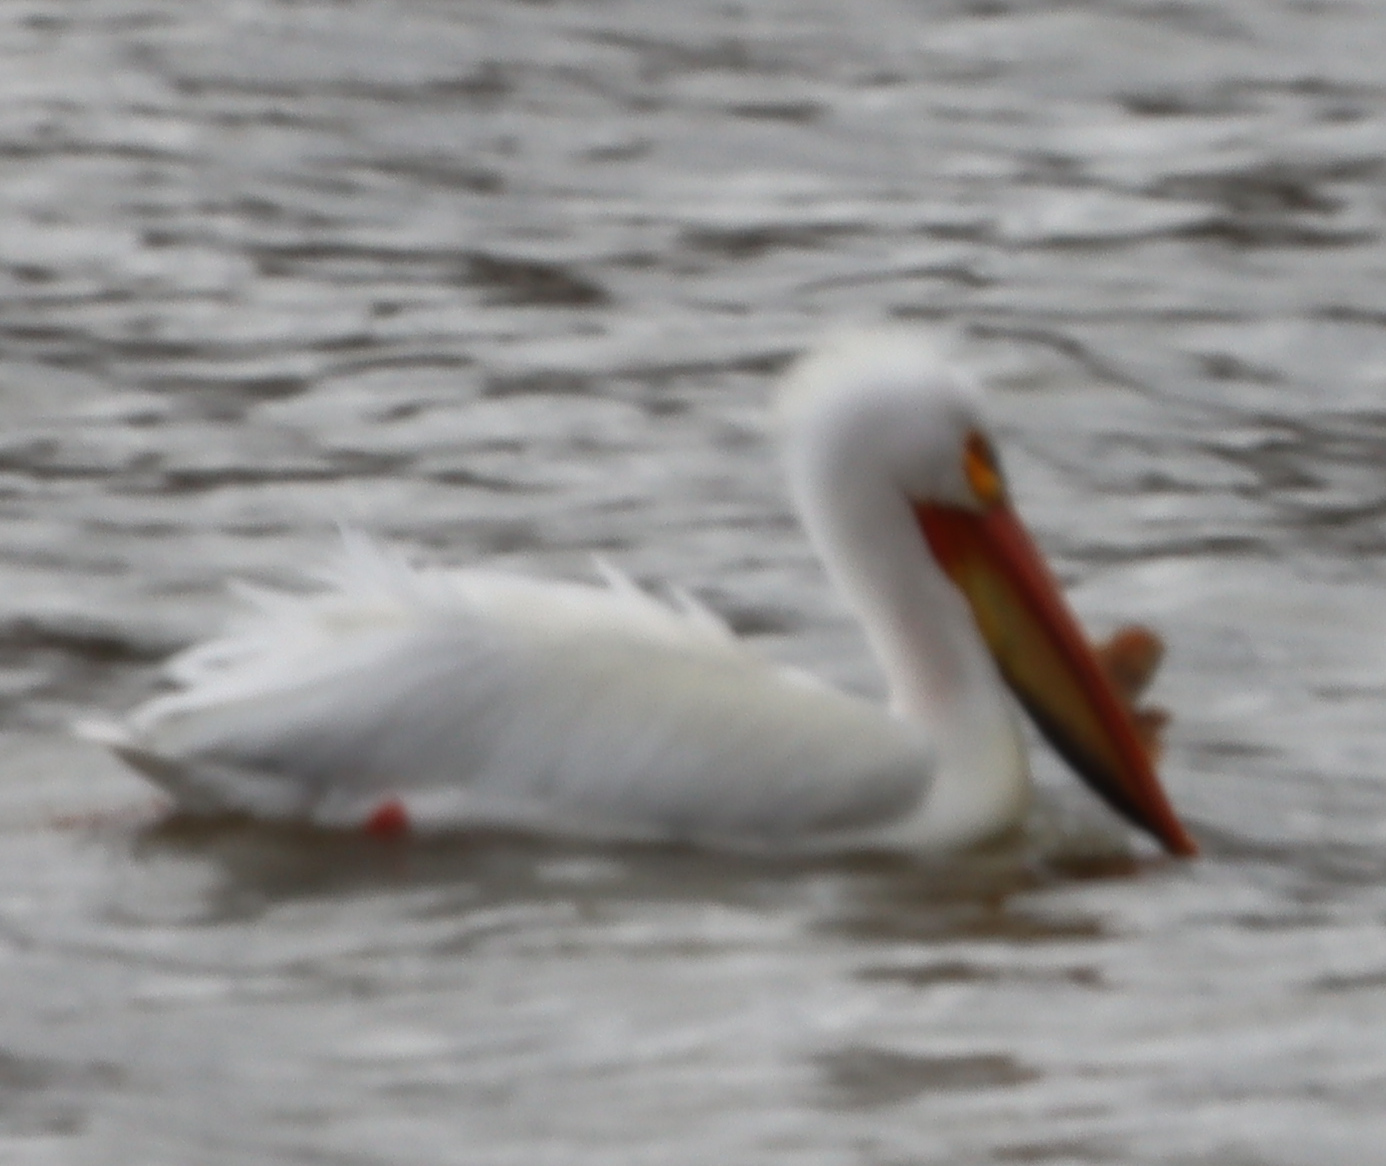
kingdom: Animalia
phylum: Chordata
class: Aves
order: Pelecaniformes
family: Pelecanidae
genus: Pelecanus
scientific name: Pelecanus erythrorhynchos
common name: American white pelican
